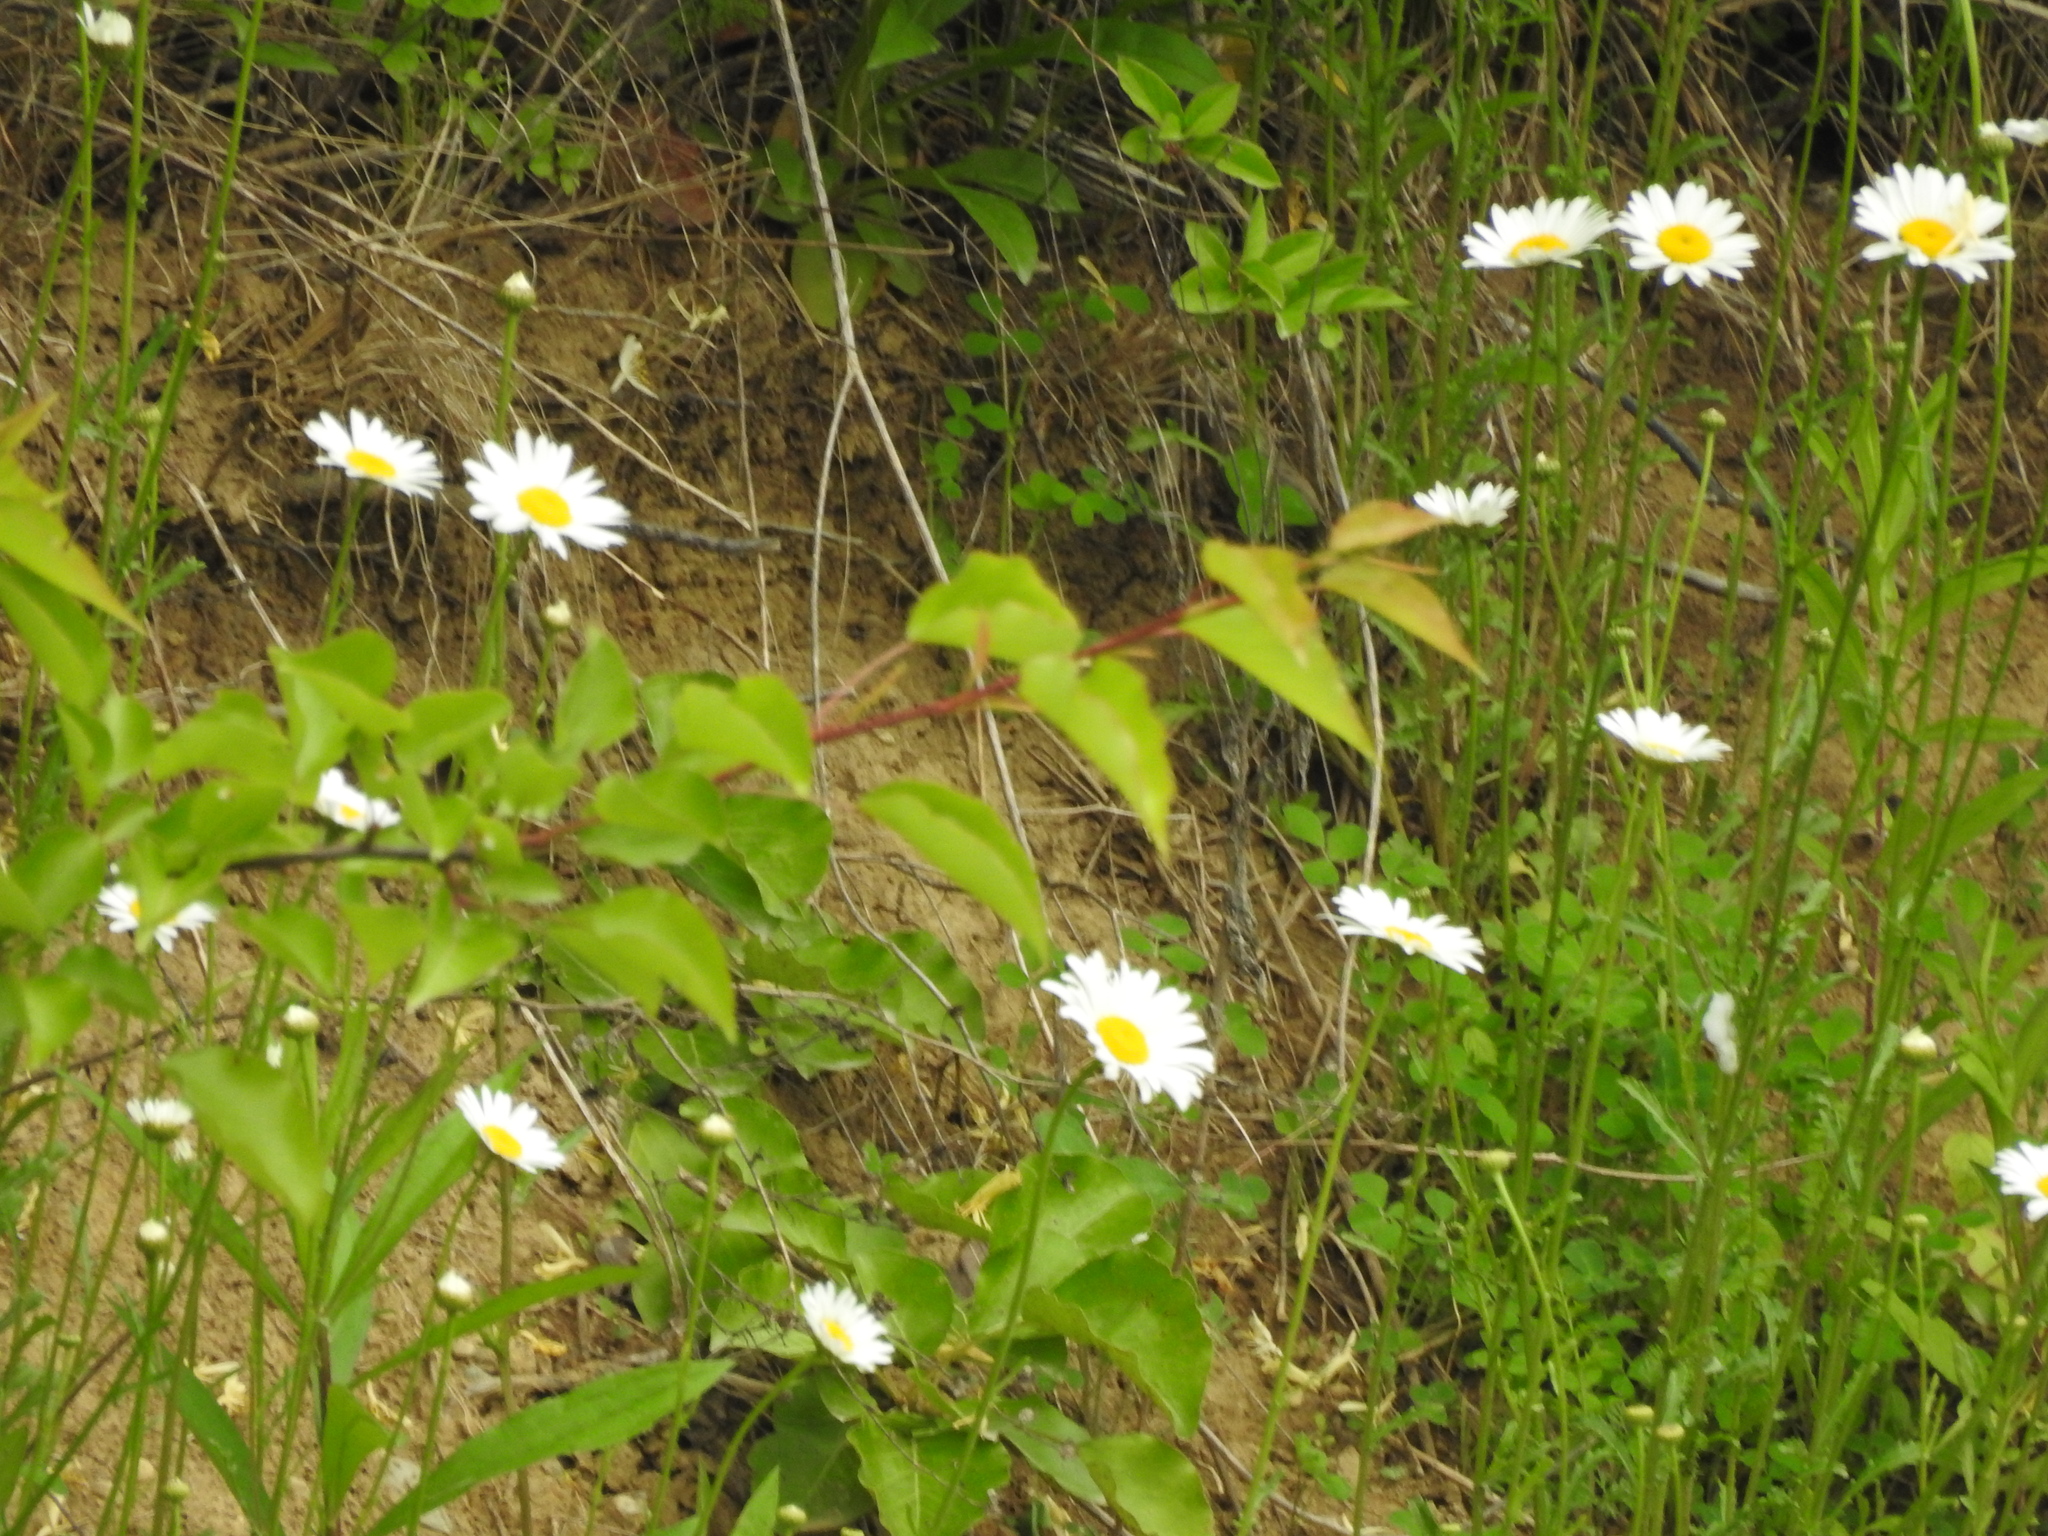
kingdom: Plantae
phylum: Tracheophyta
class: Magnoliopsida
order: Asterales
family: Asteraceae
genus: Leucanthemum
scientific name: Leucanthemum vulgare
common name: Oxeye daisy
